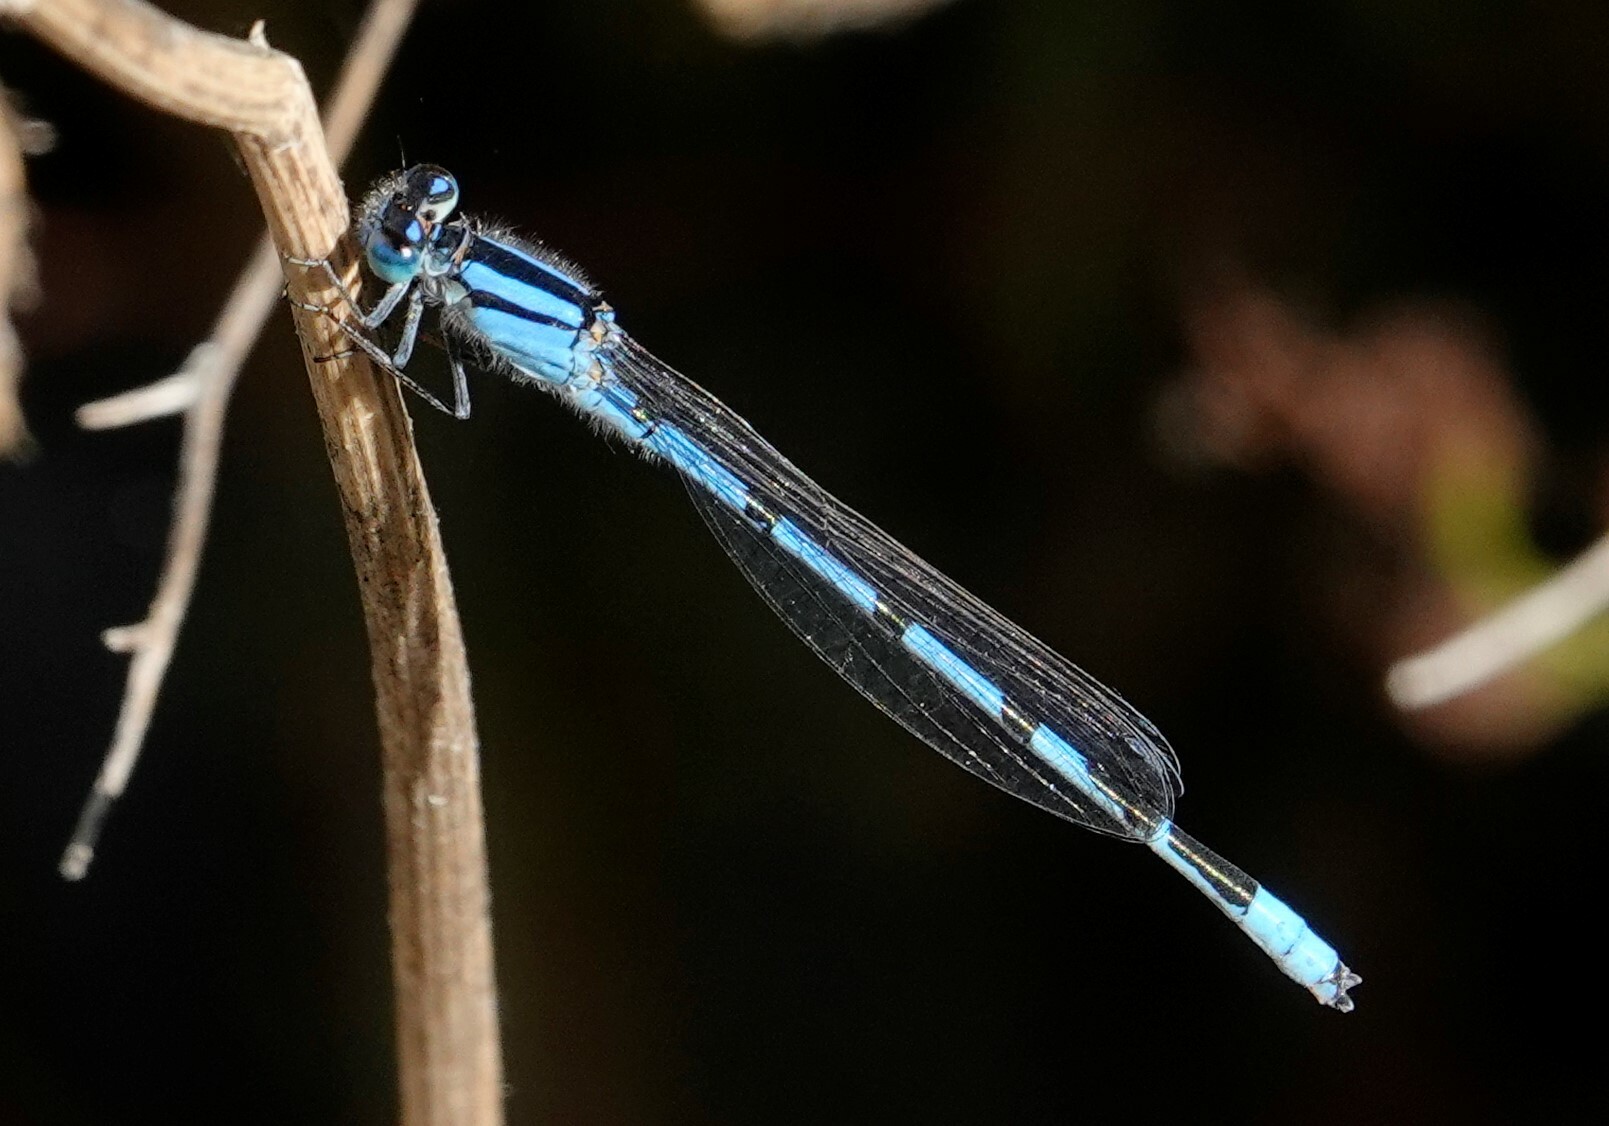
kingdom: Animalia
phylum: Arthropoda
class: Insecta
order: Odonata
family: Coenagrionidae
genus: Enallagma
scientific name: Enallagma civile
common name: Damselfly
